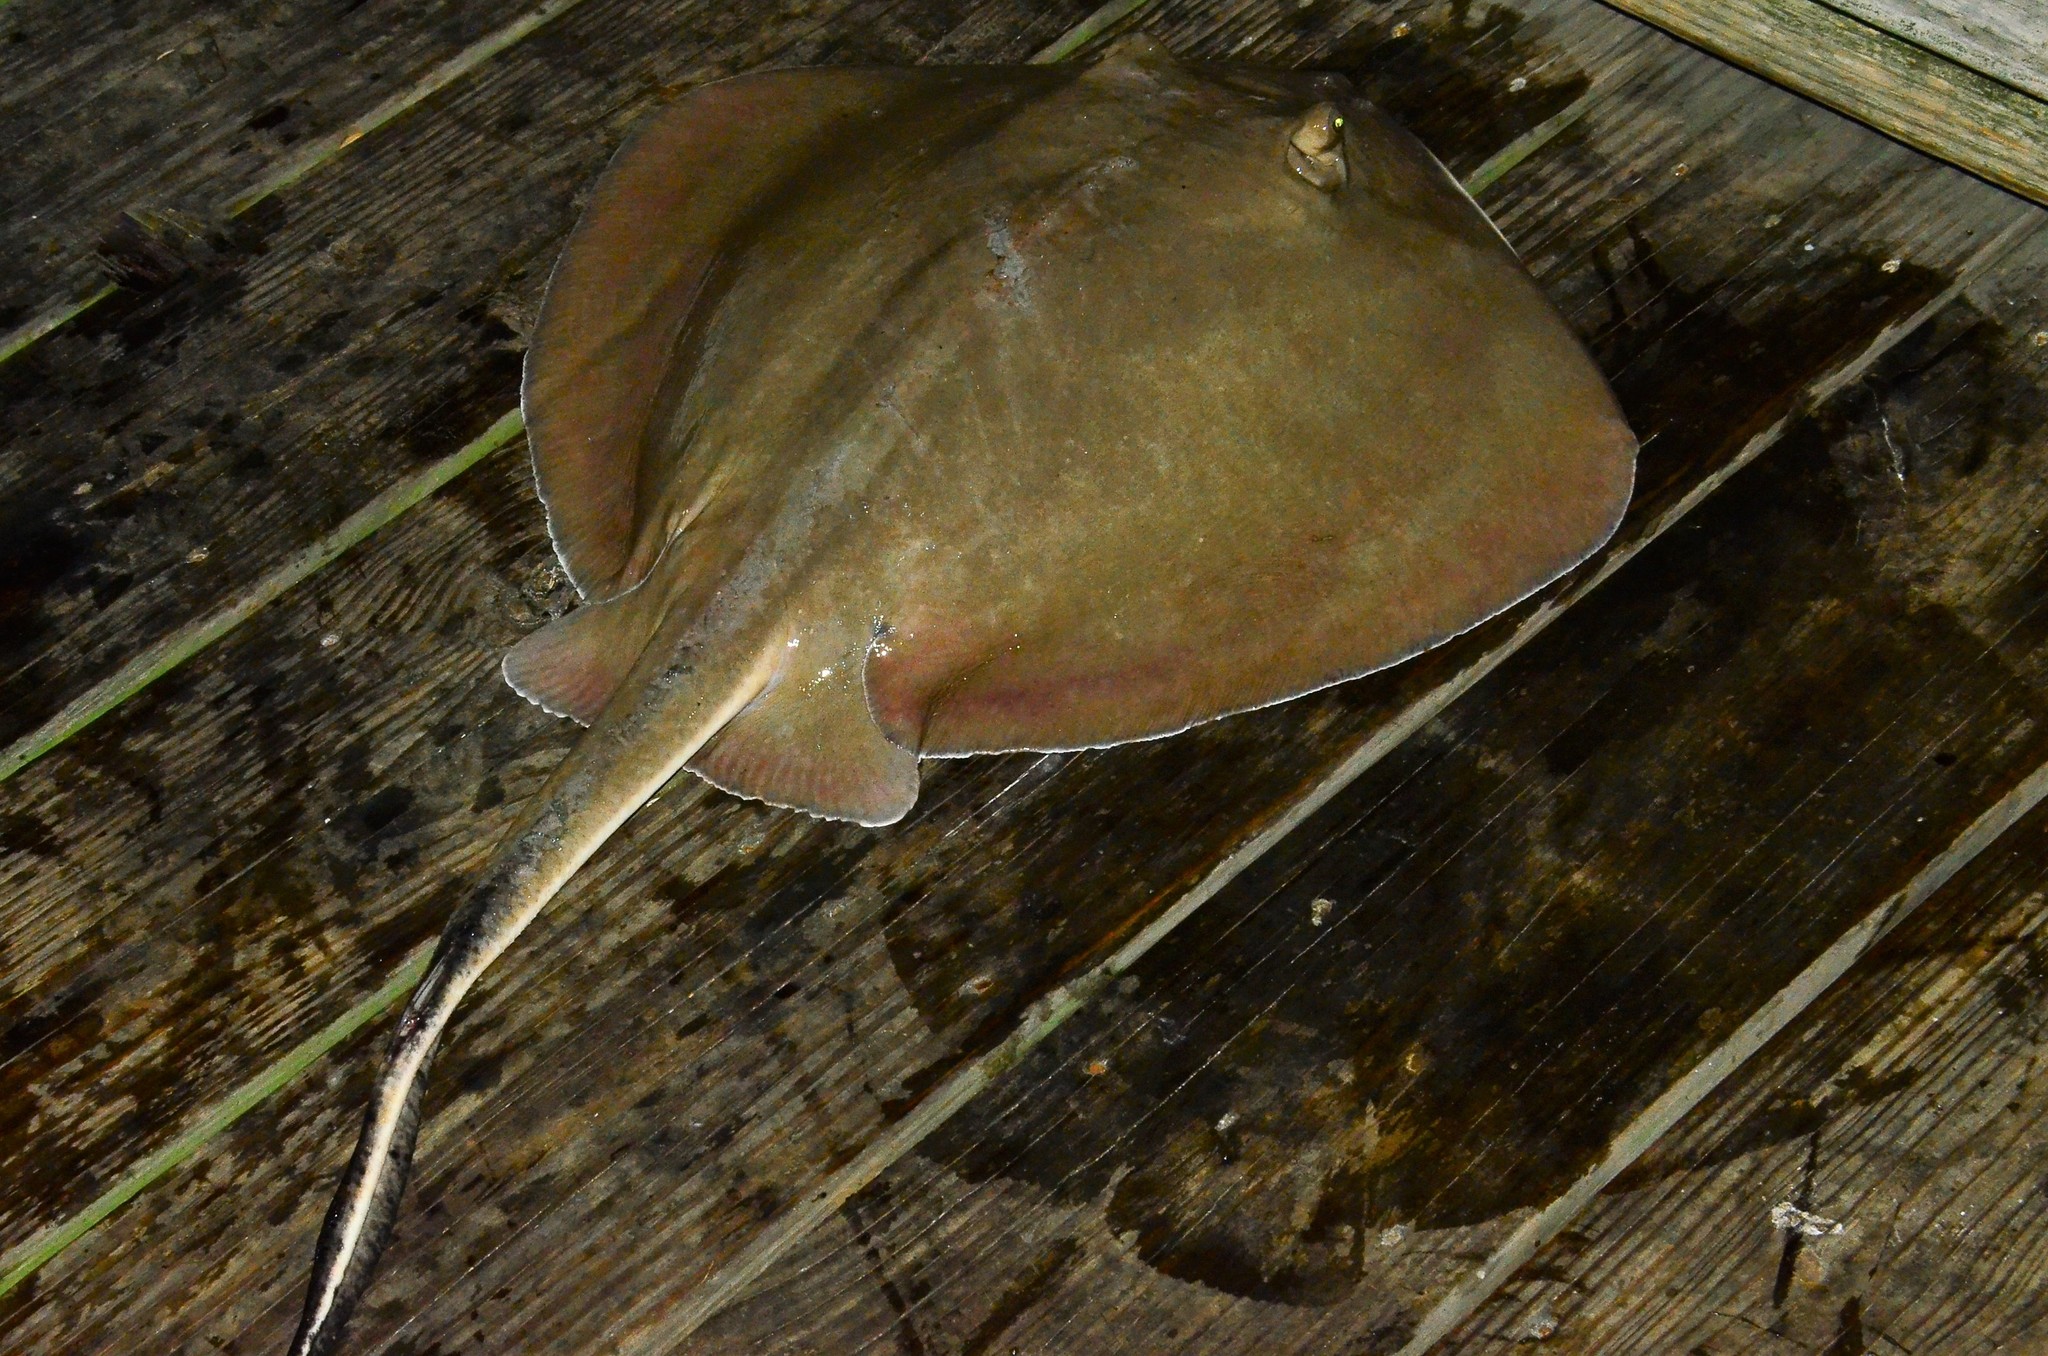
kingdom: Animalia
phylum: Chordata
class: Elasmobranchii
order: Myliobatiformes
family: Dasyatidae
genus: Hypanus
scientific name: Hypanus
